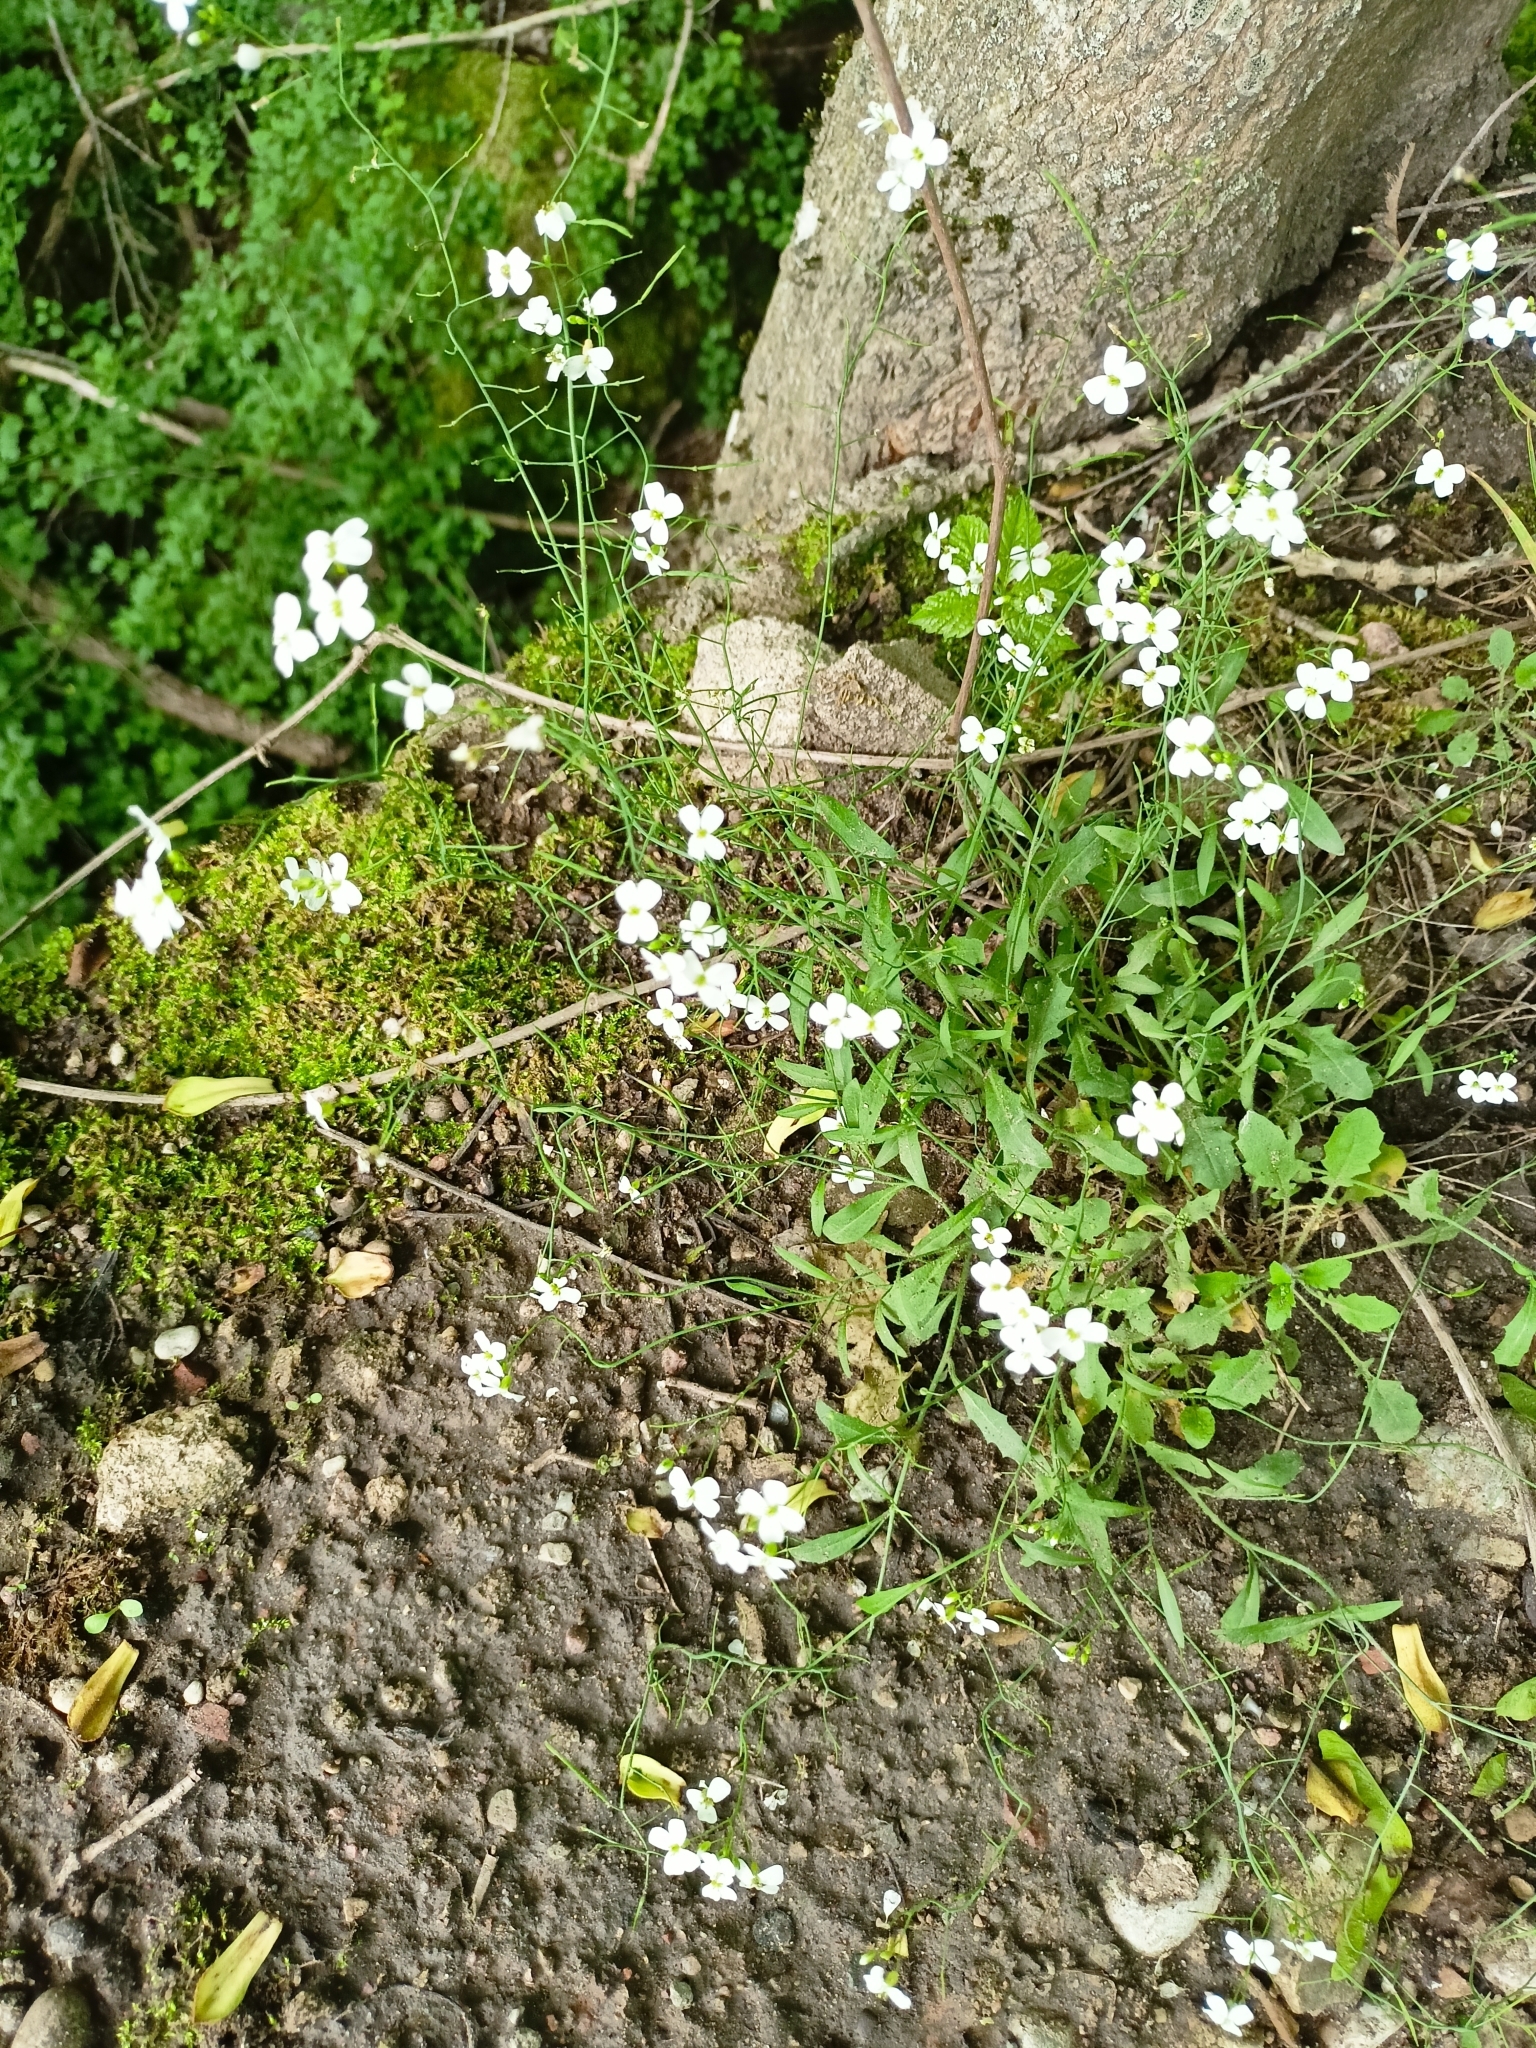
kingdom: Plantae
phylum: Tracheophyta
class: Magnoliopsida
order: Brassicales
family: Brassicaceae
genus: Arabidopsis
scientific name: Arabidopsis arenosa
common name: Sand rock-cress
